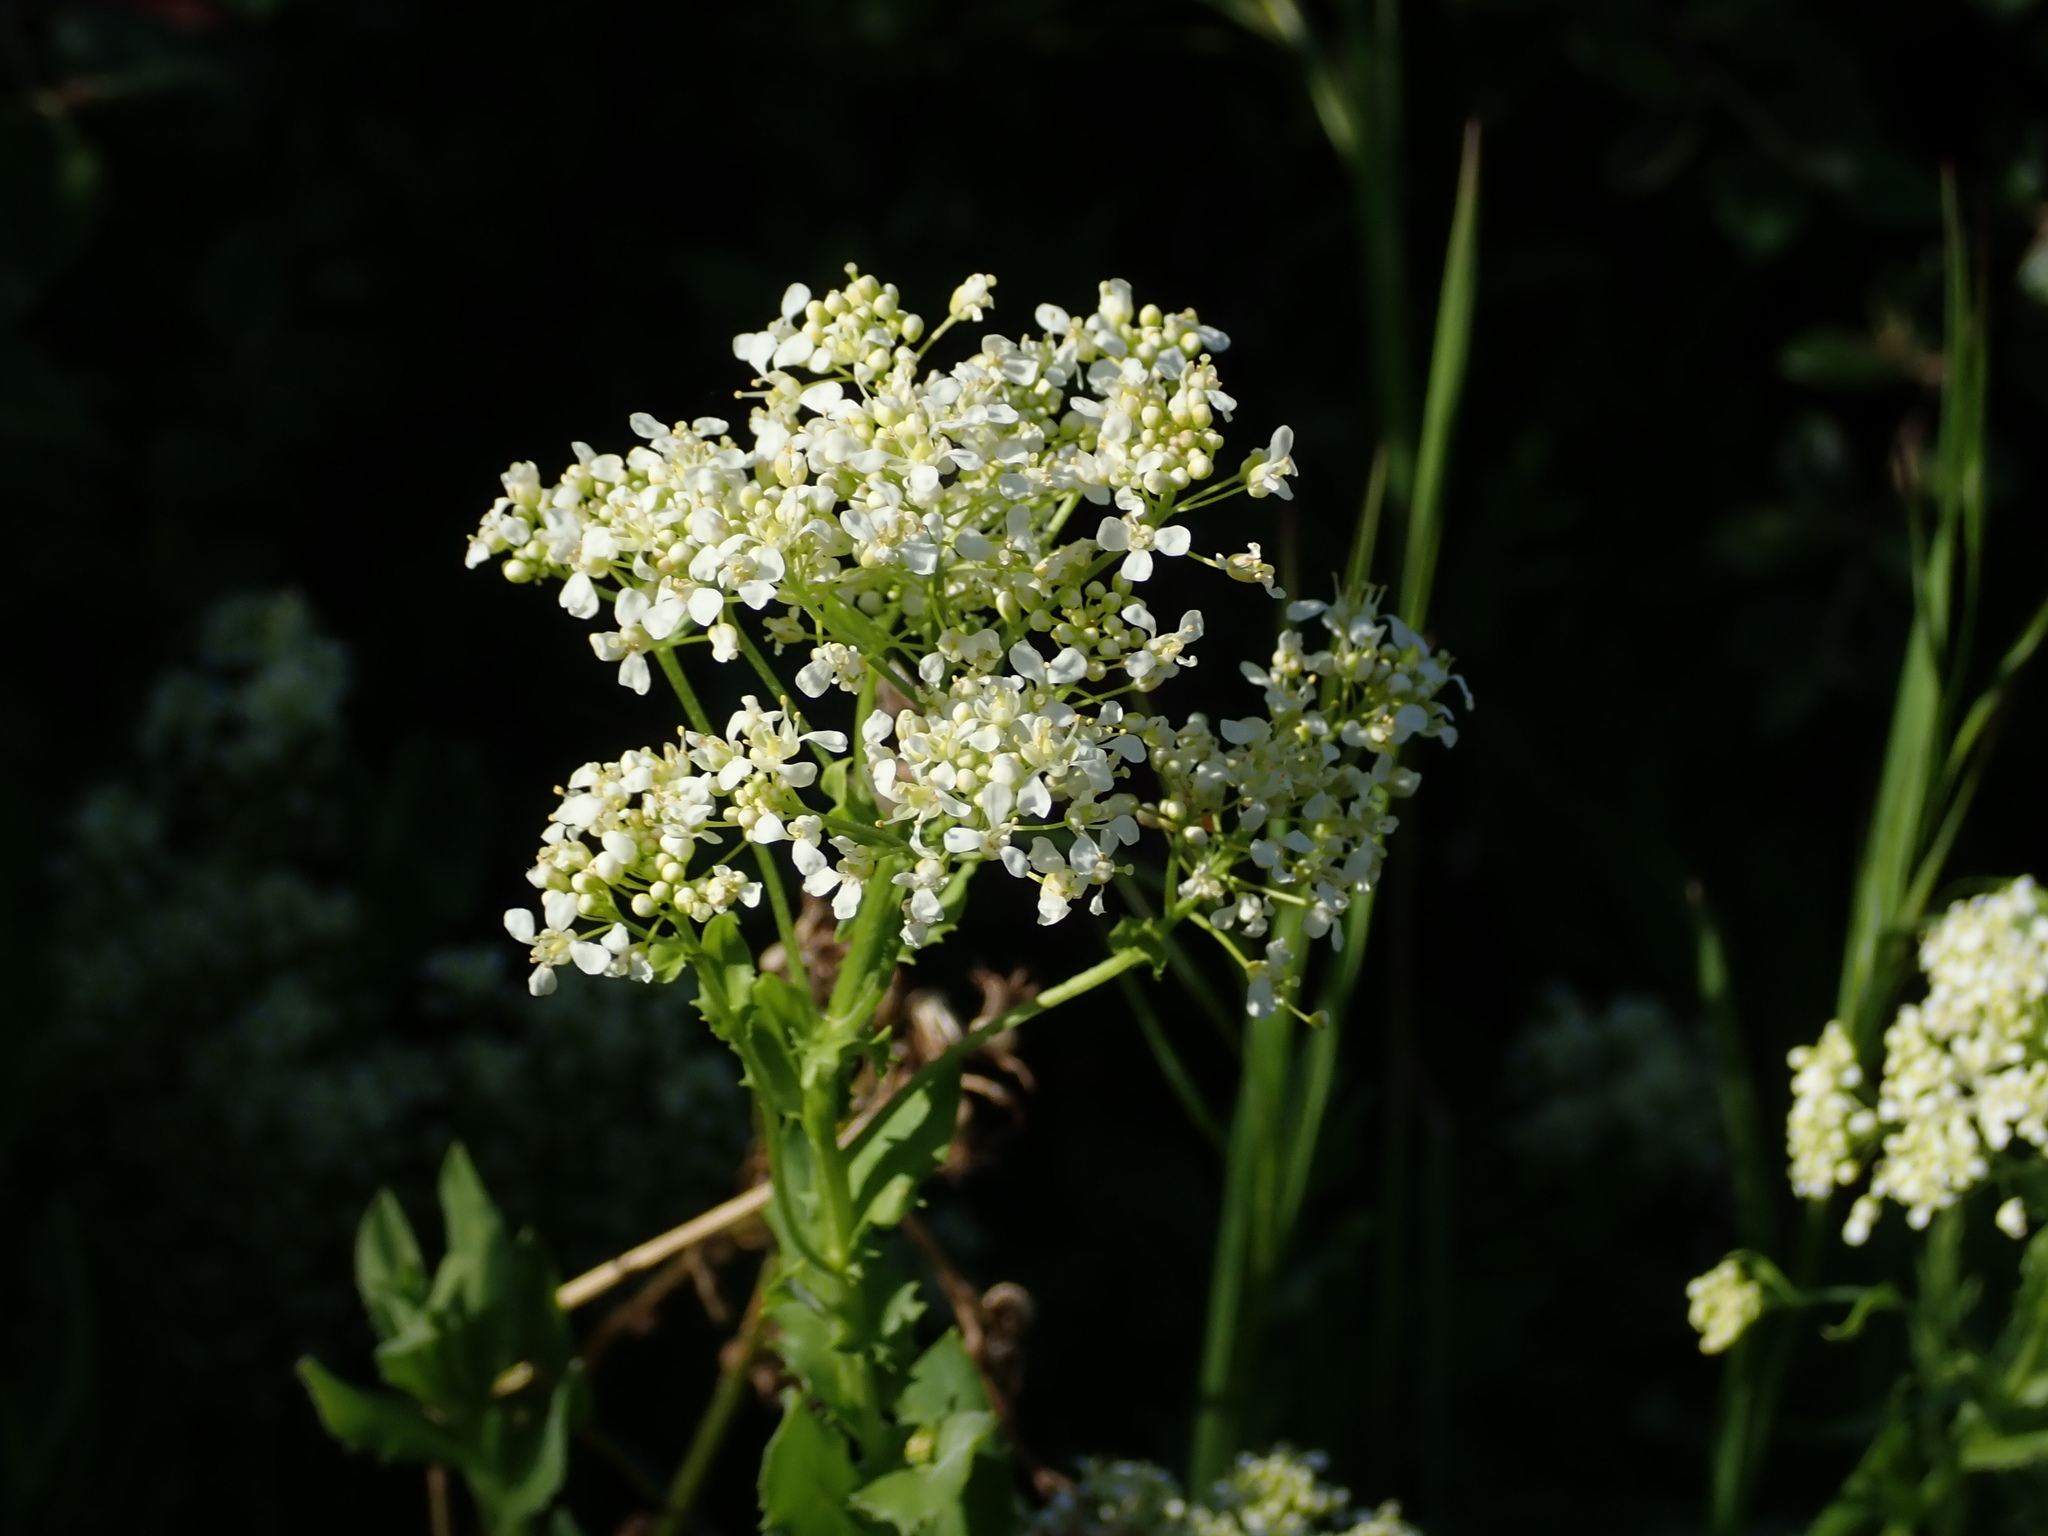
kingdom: Plantae
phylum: Tracheophyta
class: Magnoliopsida
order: Brassicales
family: Brassicaceae
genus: Lepidium
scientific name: Lepidium draba
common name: Hoary cress
